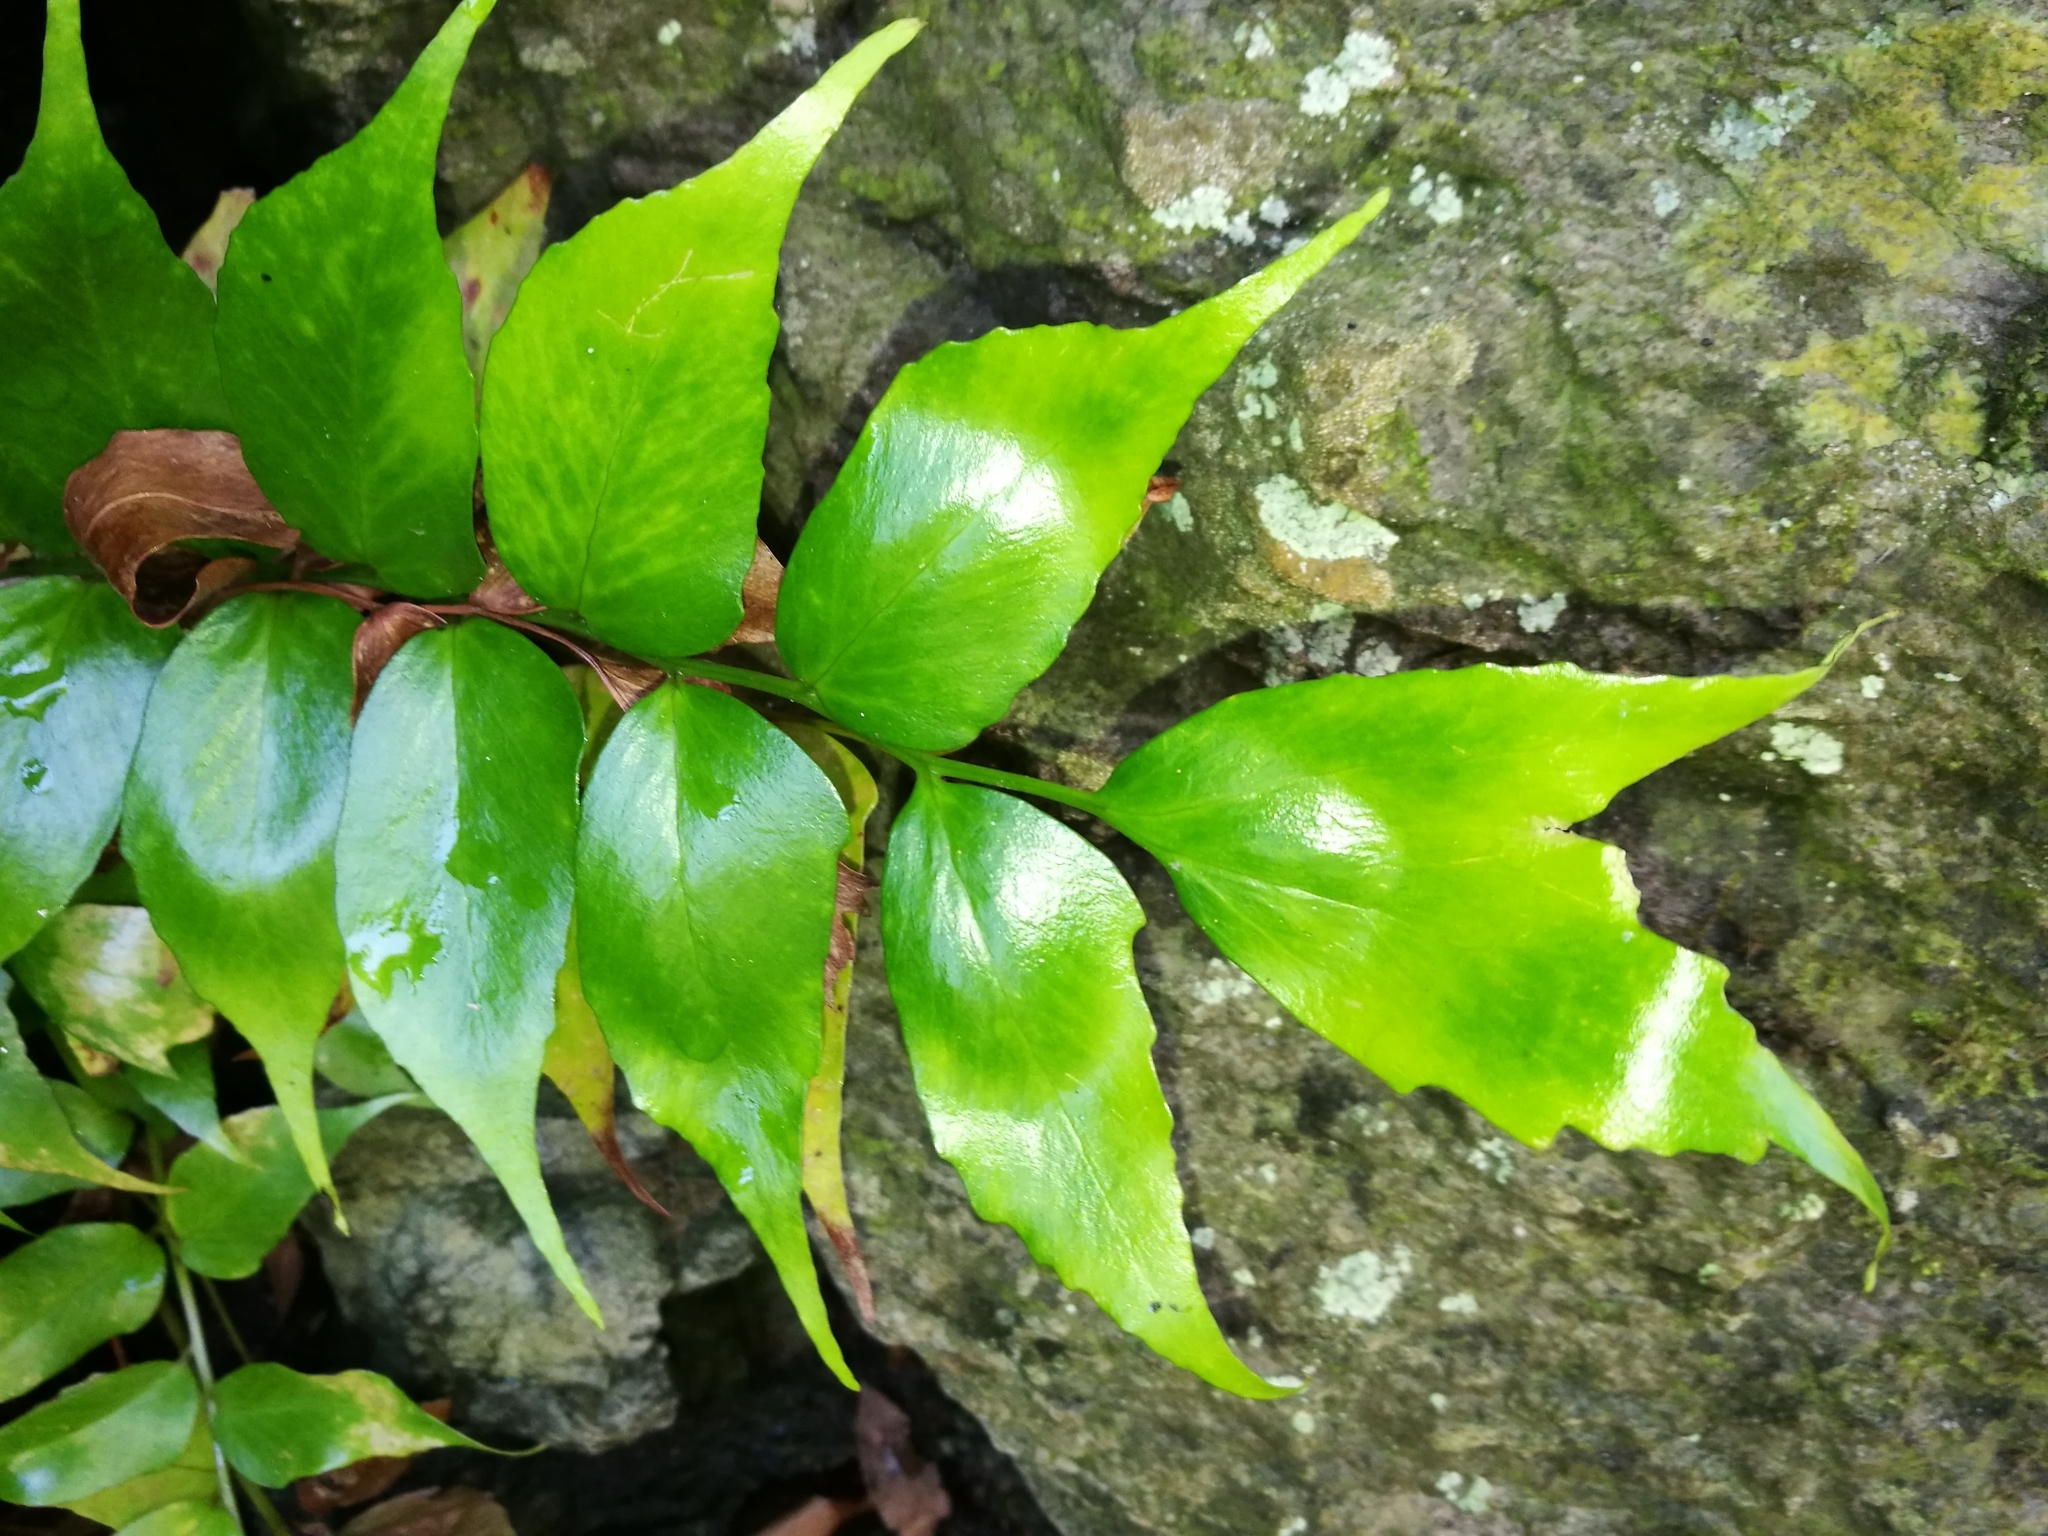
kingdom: Plantae
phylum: Tracheophyta
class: Polypodiopsida
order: Polypodiales
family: Dryopteridaceae
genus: Cyrtomium
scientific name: Cyrtomium falcatum
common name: House holly-fern
